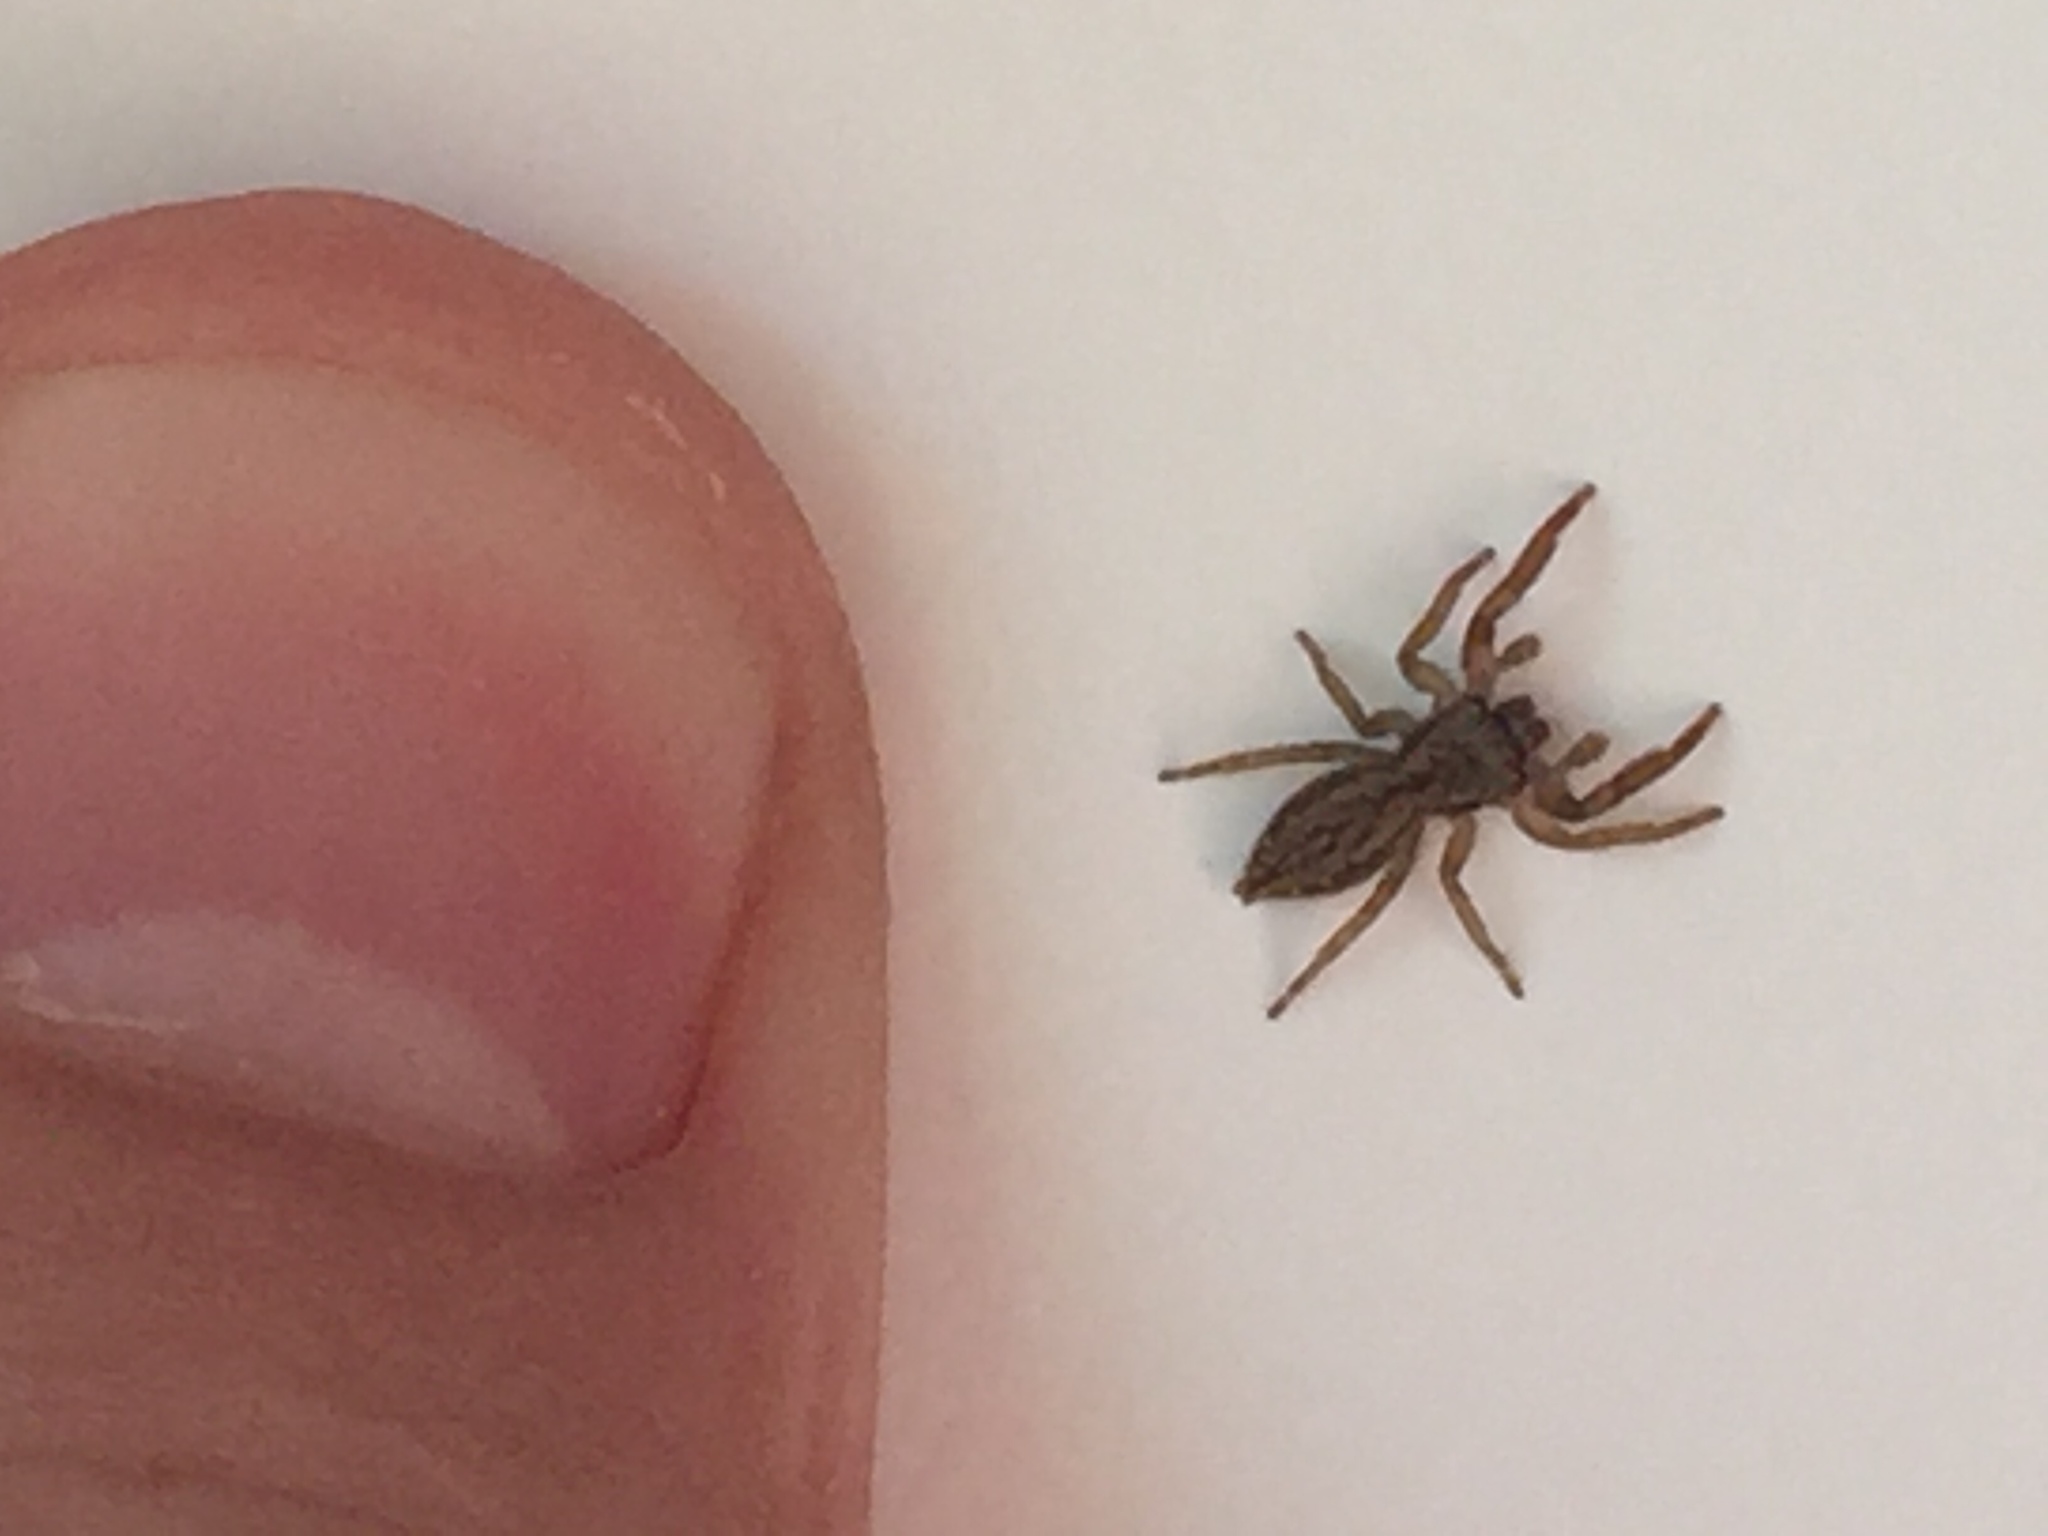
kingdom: Animalia
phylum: Arthropoda
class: Arachnida
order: Araneae
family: Salticidae
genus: Trite
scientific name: Trite auricoma
